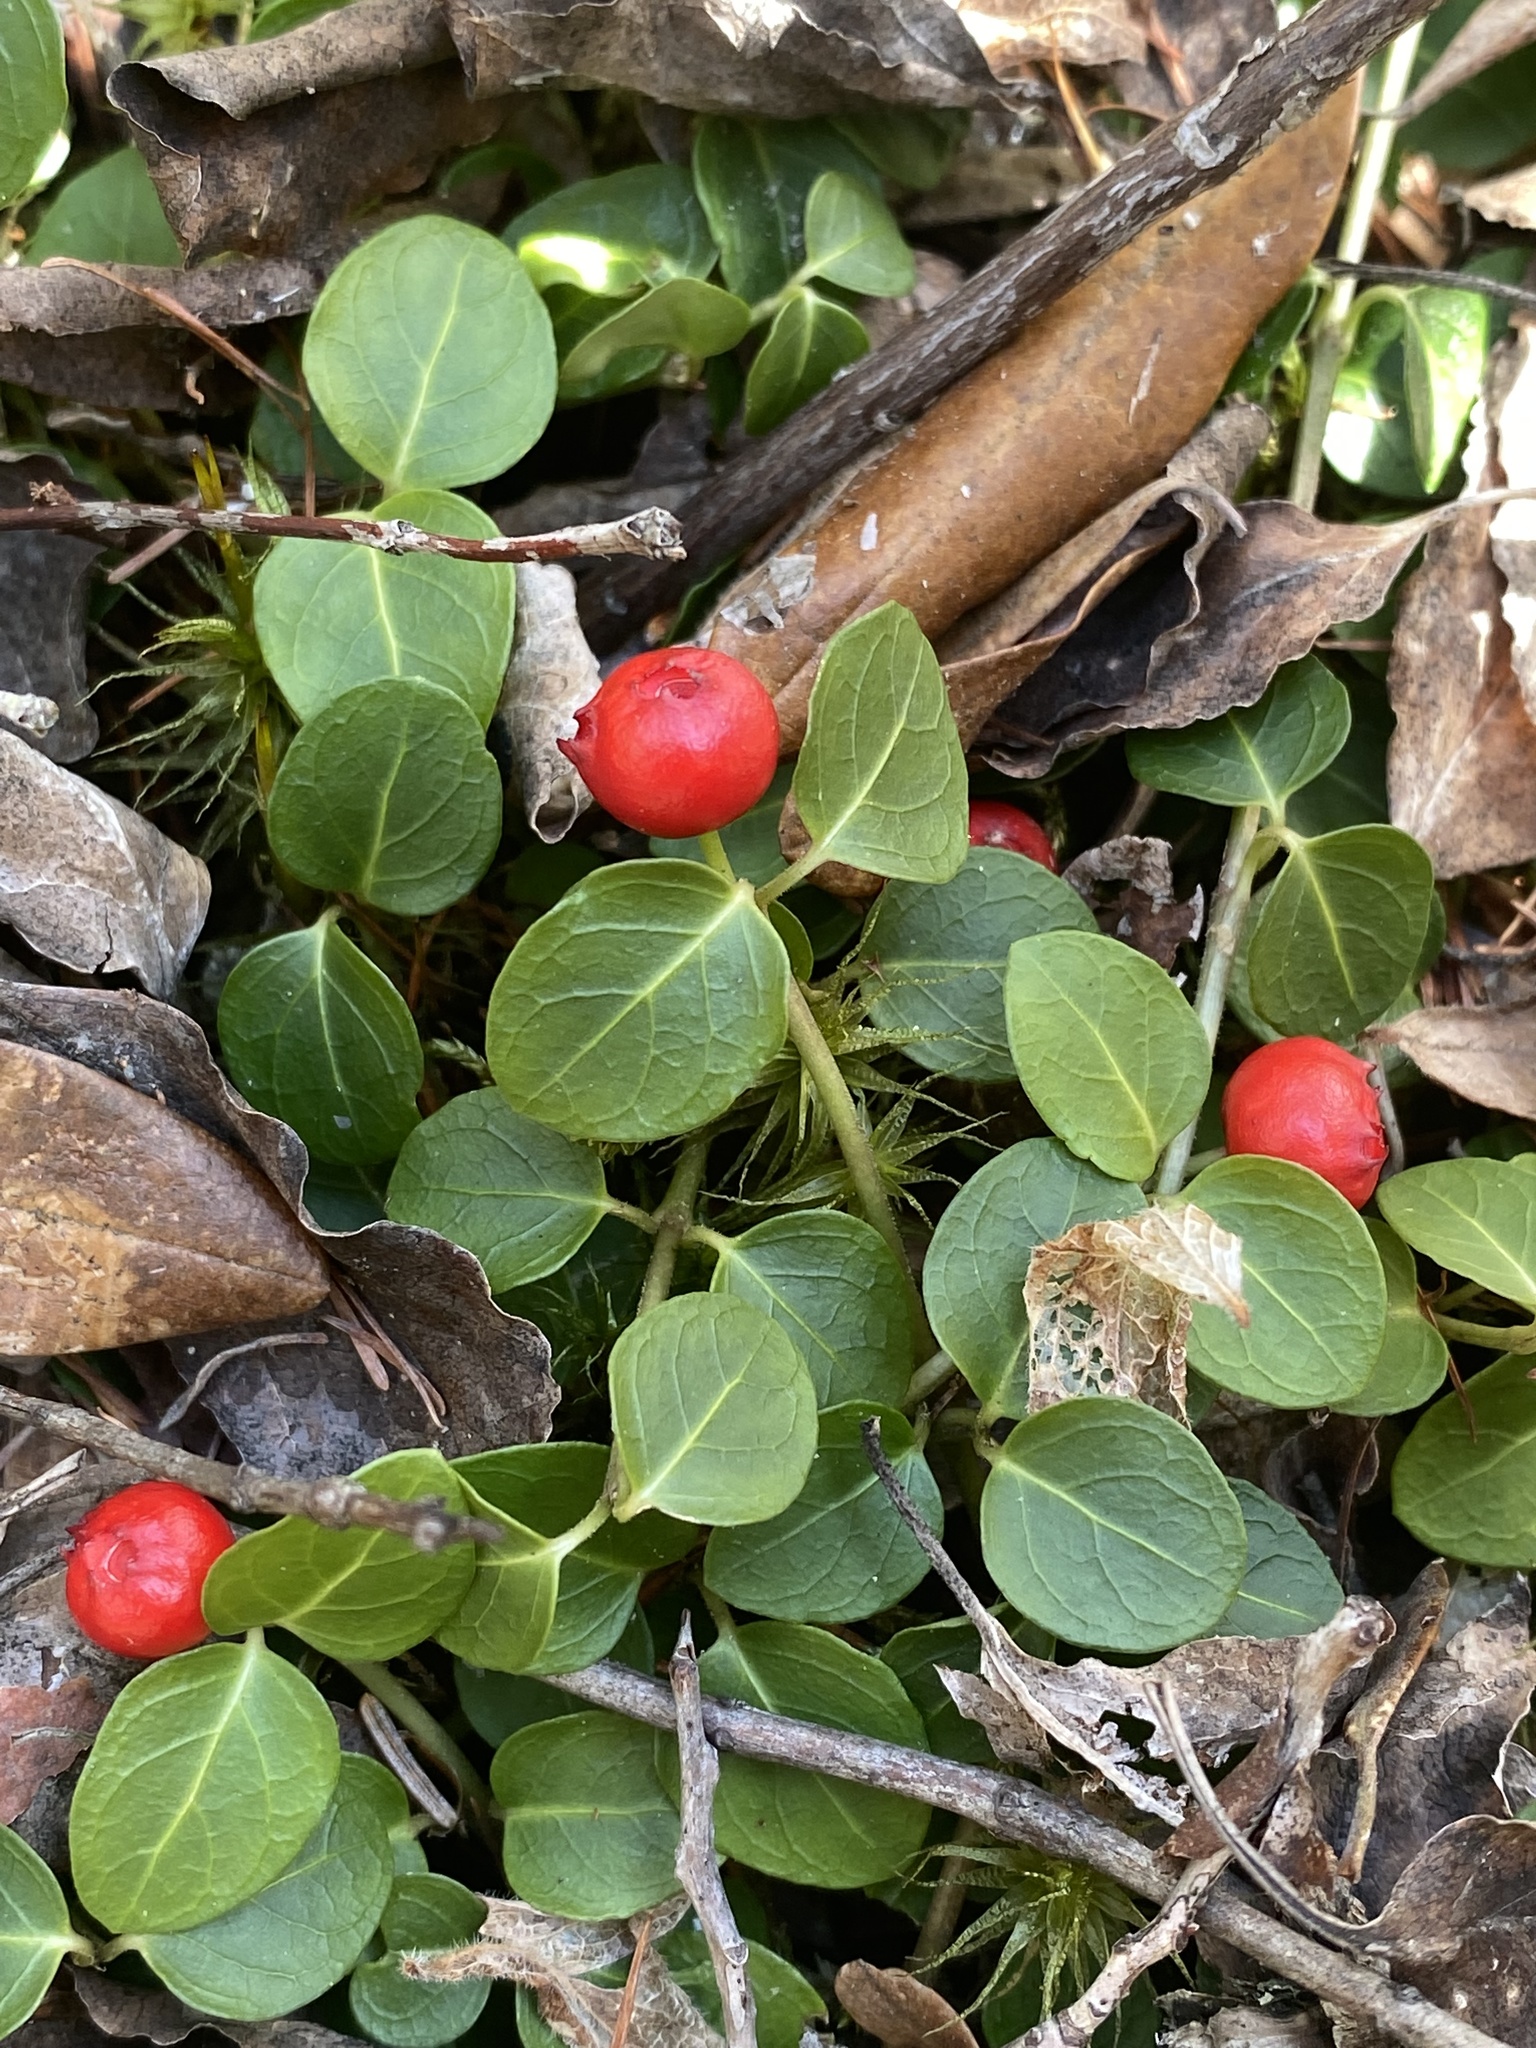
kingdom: Plantae
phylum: Tracheophyta
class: Magnoliopsida
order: Gentianales
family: Rubiaceae
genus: Mitchella
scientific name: Mitchella repens
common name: Partridge-berry
